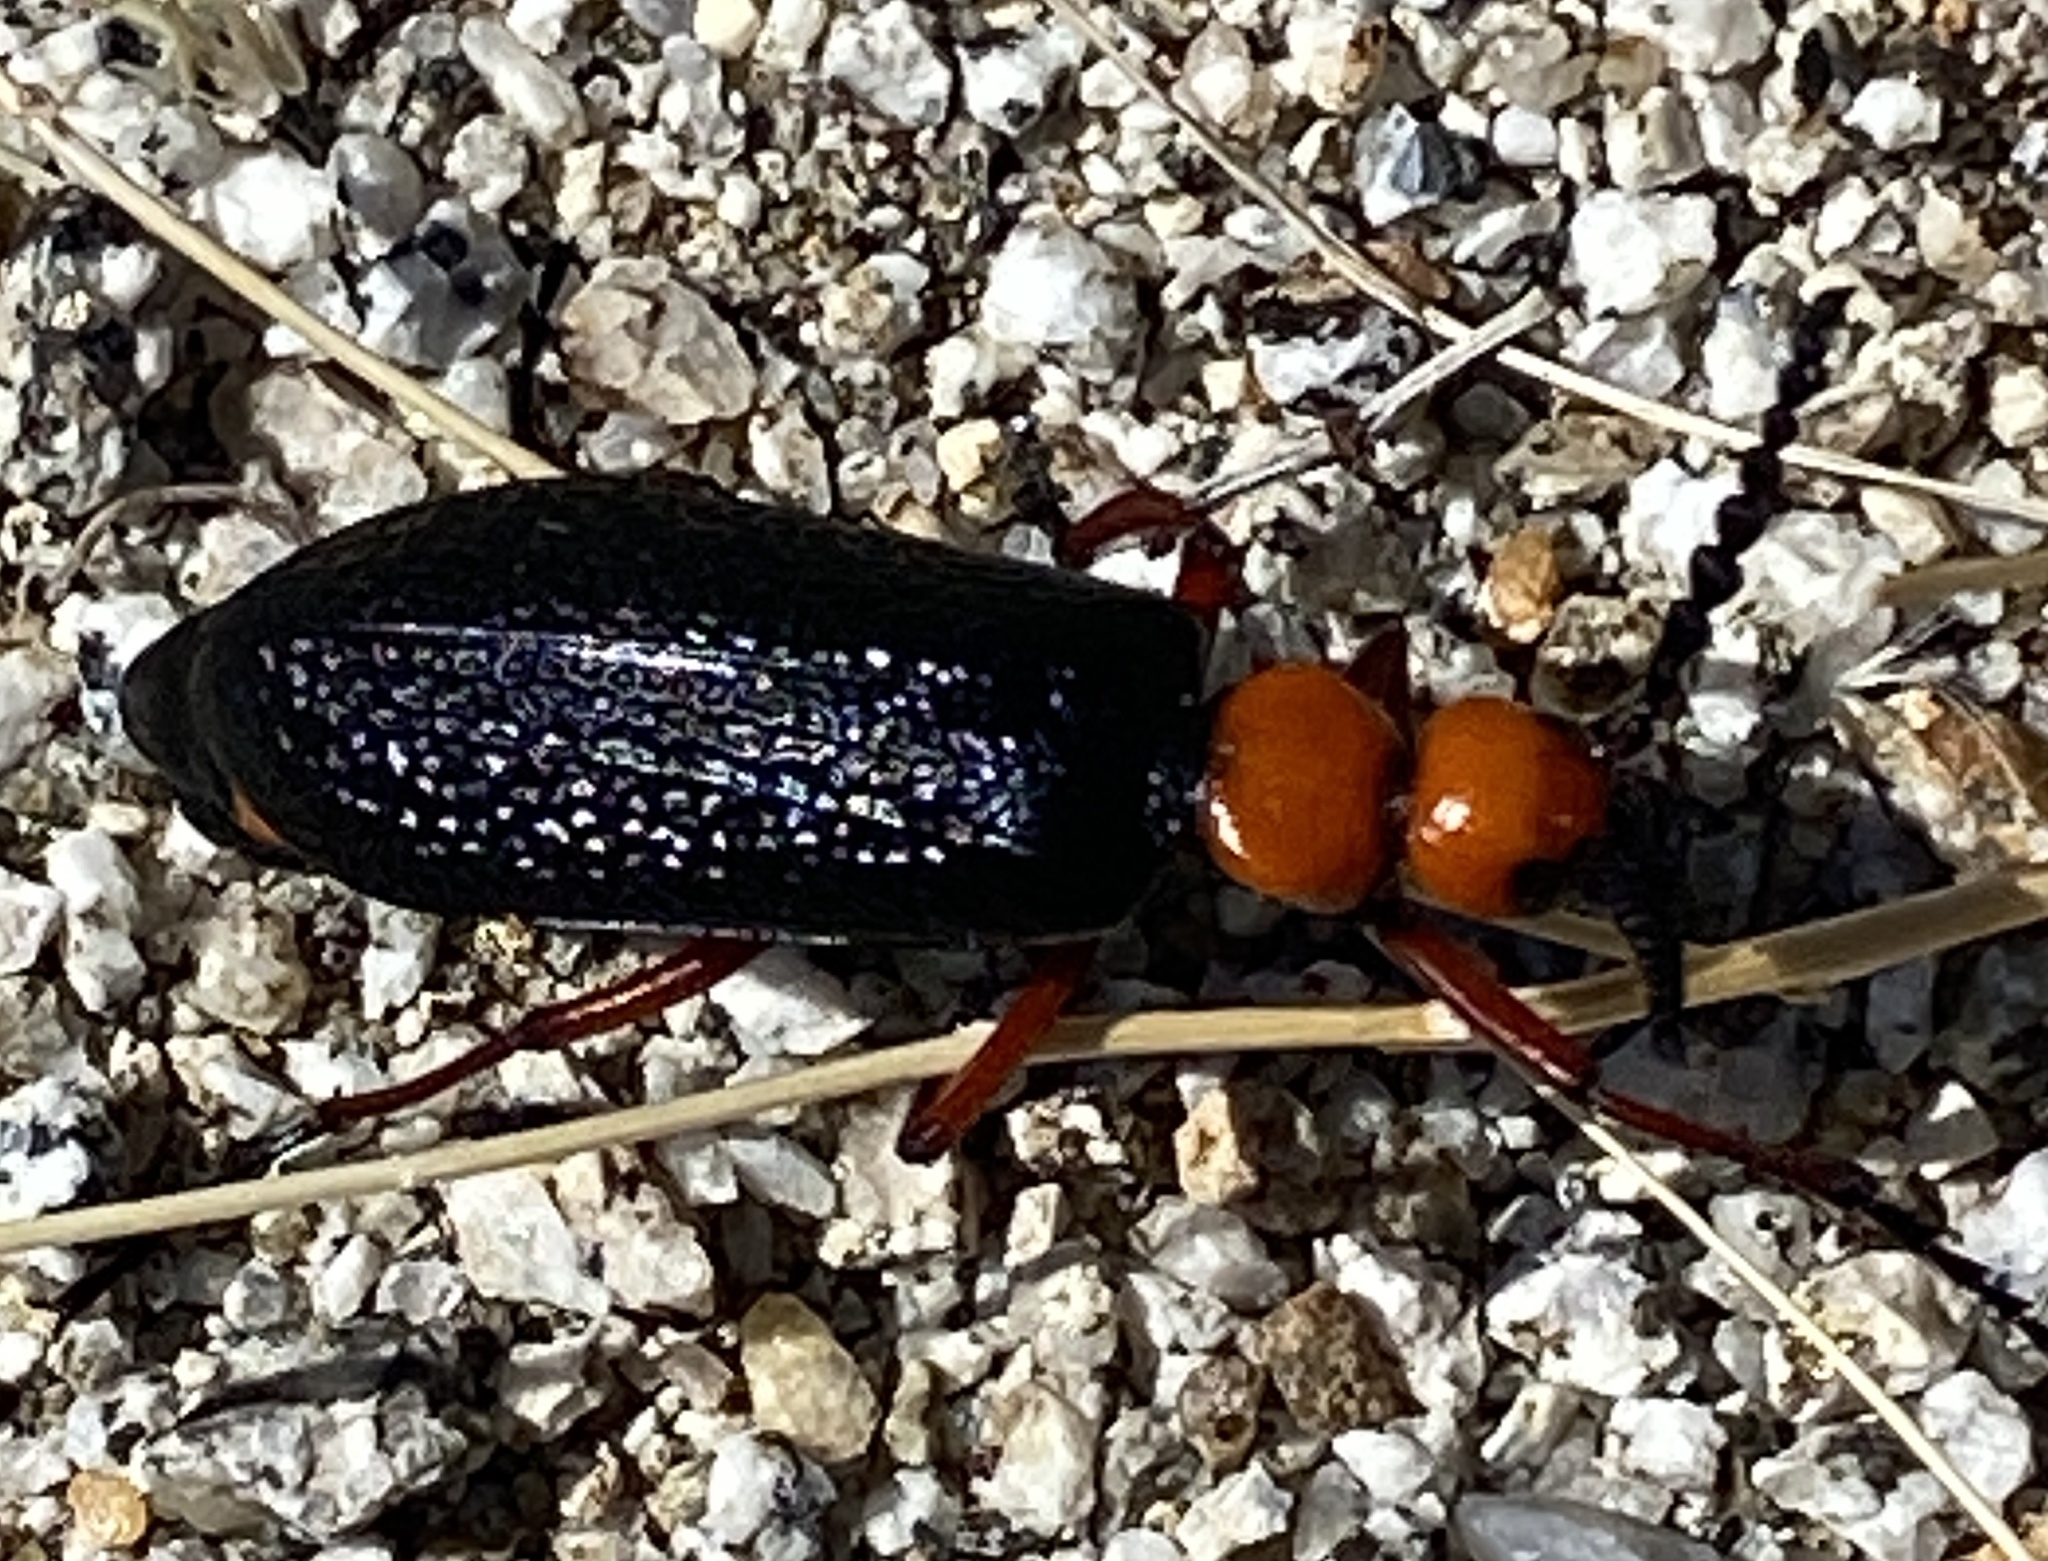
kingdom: Animalia
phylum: Arthropoda
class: Insecta
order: Coleoptera
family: Meloidae
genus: Lytta
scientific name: Lytta magister
